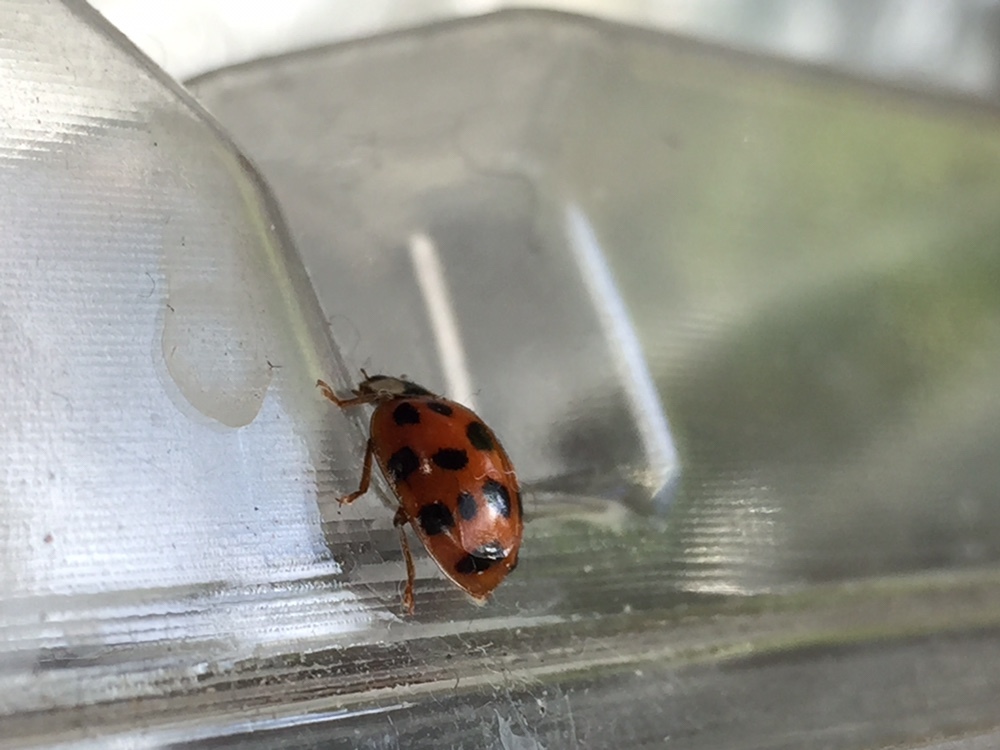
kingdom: Animalia
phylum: Arthropoda
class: Insecta
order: Coleoptera
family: Coccinellidae
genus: Harmonia
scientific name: Harmonia axyridis
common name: Harlequin ladybird
